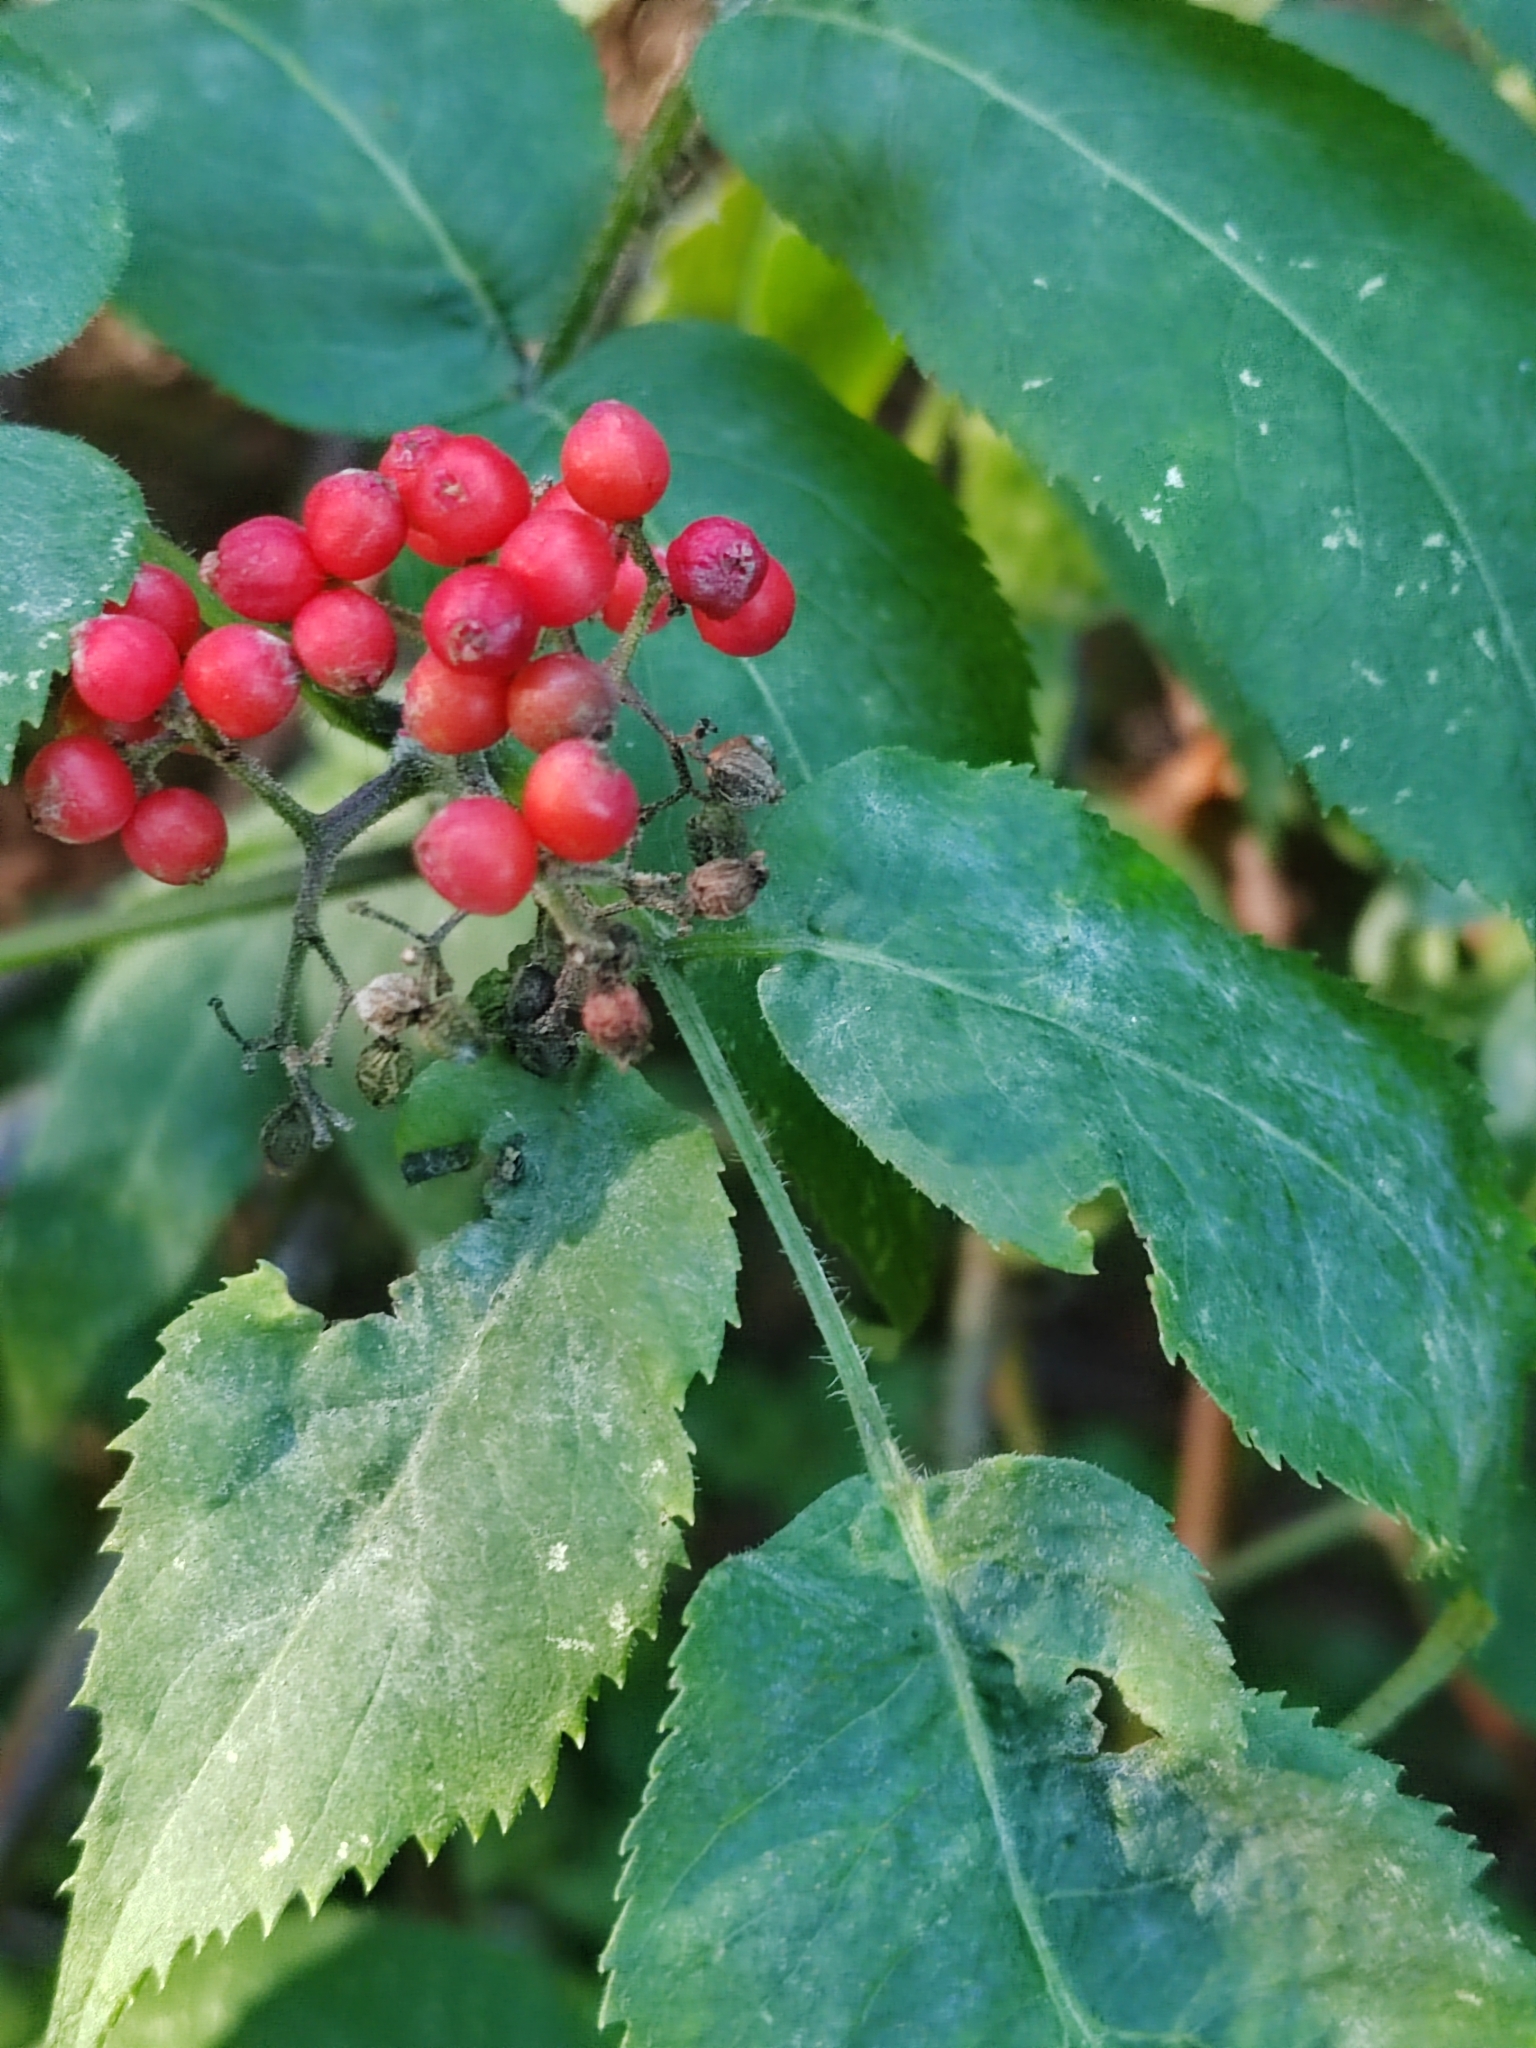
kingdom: Plantae
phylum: Tracheophyta
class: Magnoliopsida
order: Dipsacales
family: Viburnaceae
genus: Sambucus
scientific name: Sambucus sibirica
